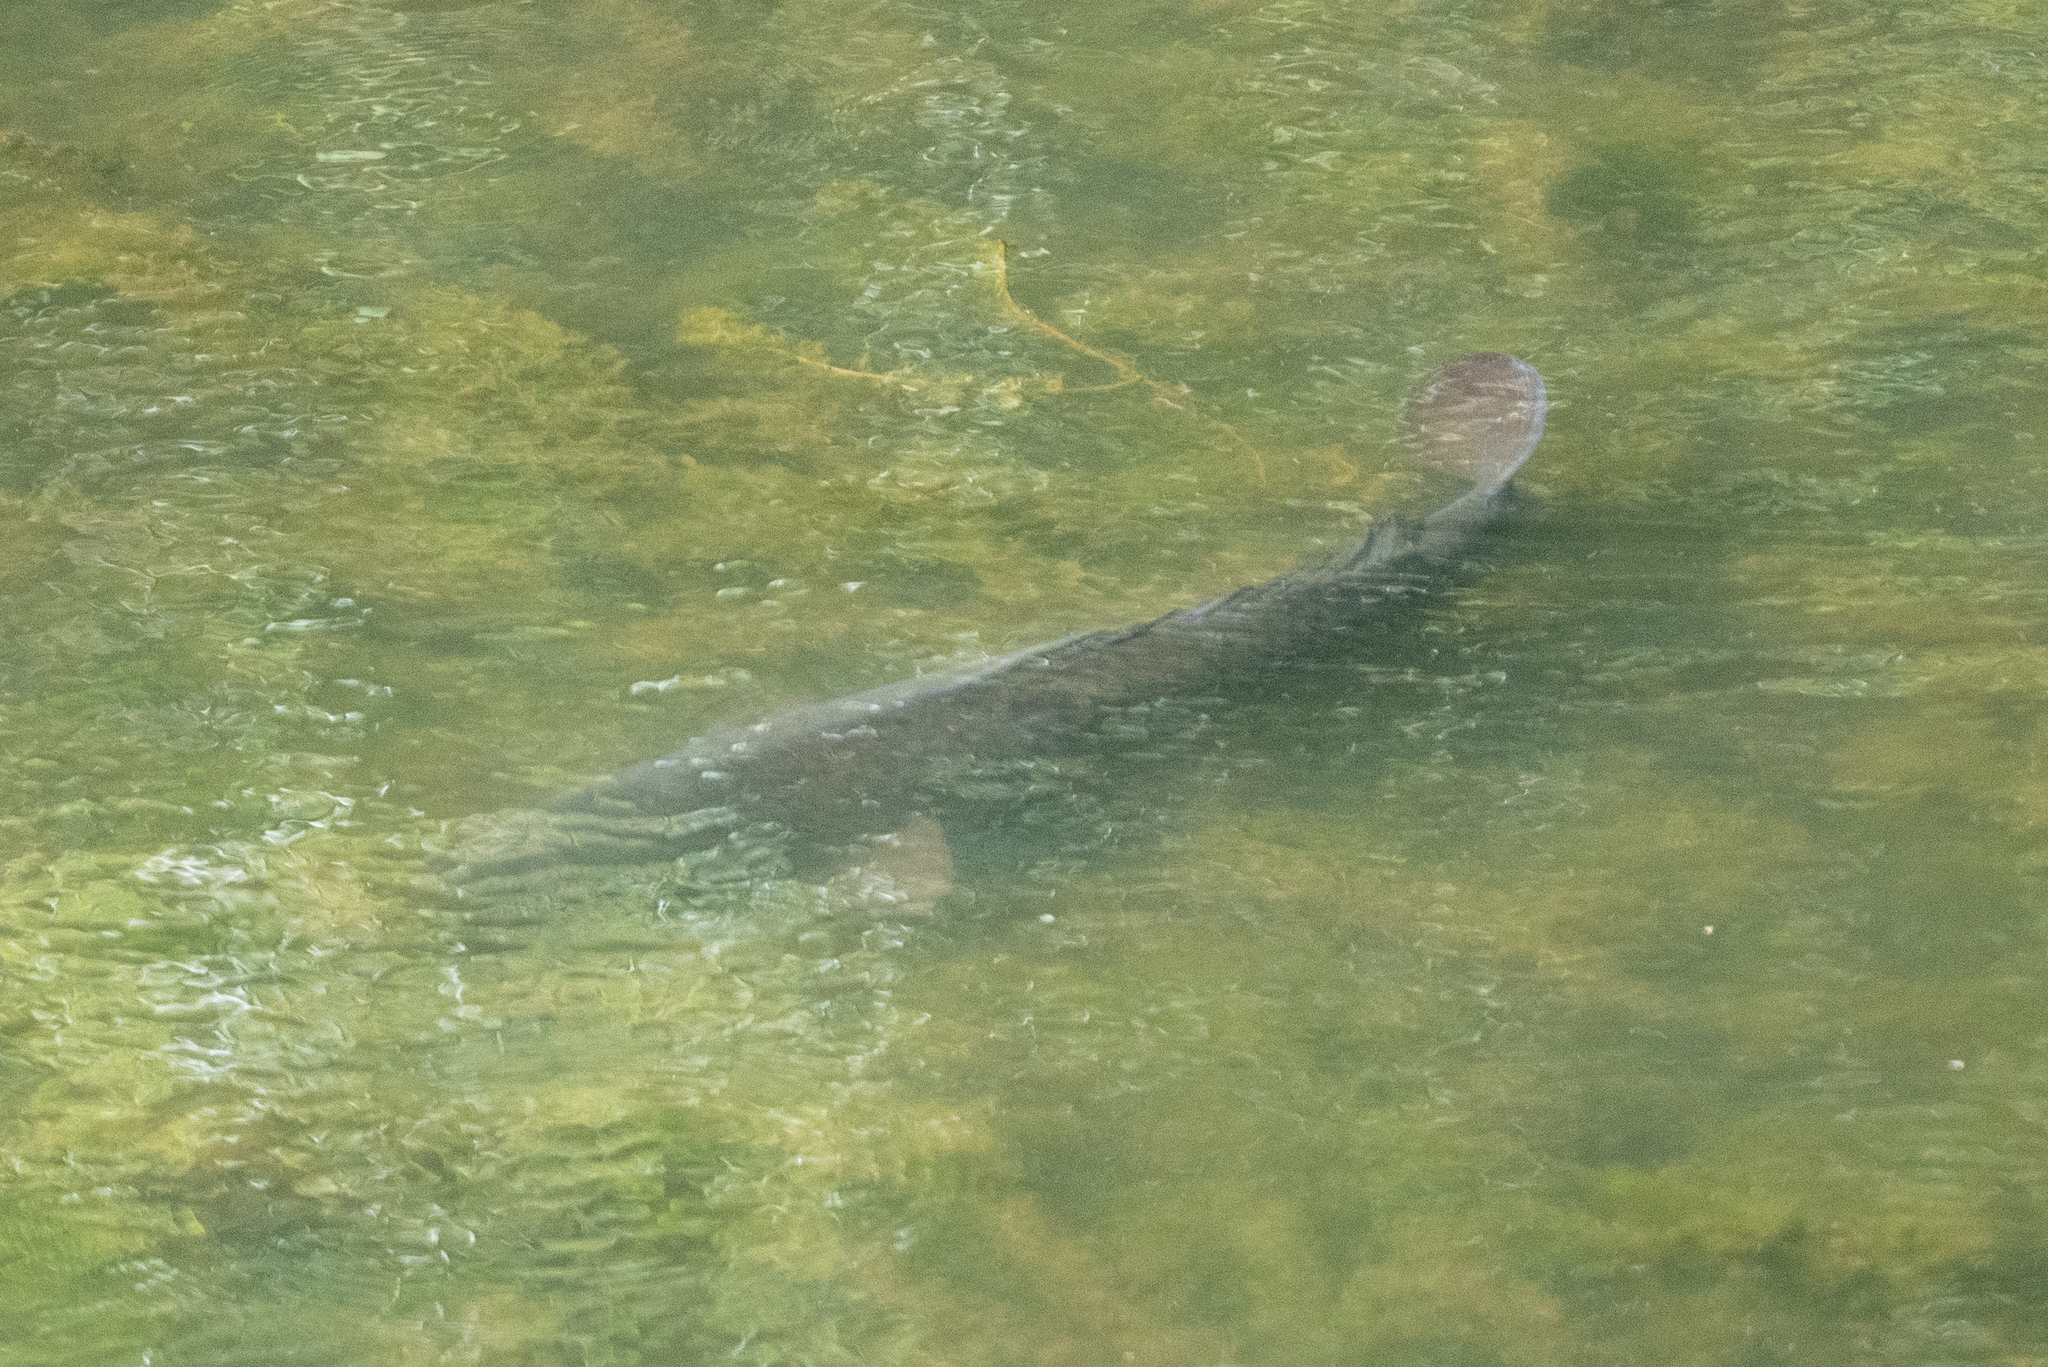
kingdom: Animalia
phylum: Chordata
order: Cypriniformes
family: Cyprinidae
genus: Cyprinus
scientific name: Cyprinus carpio
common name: Common carp
